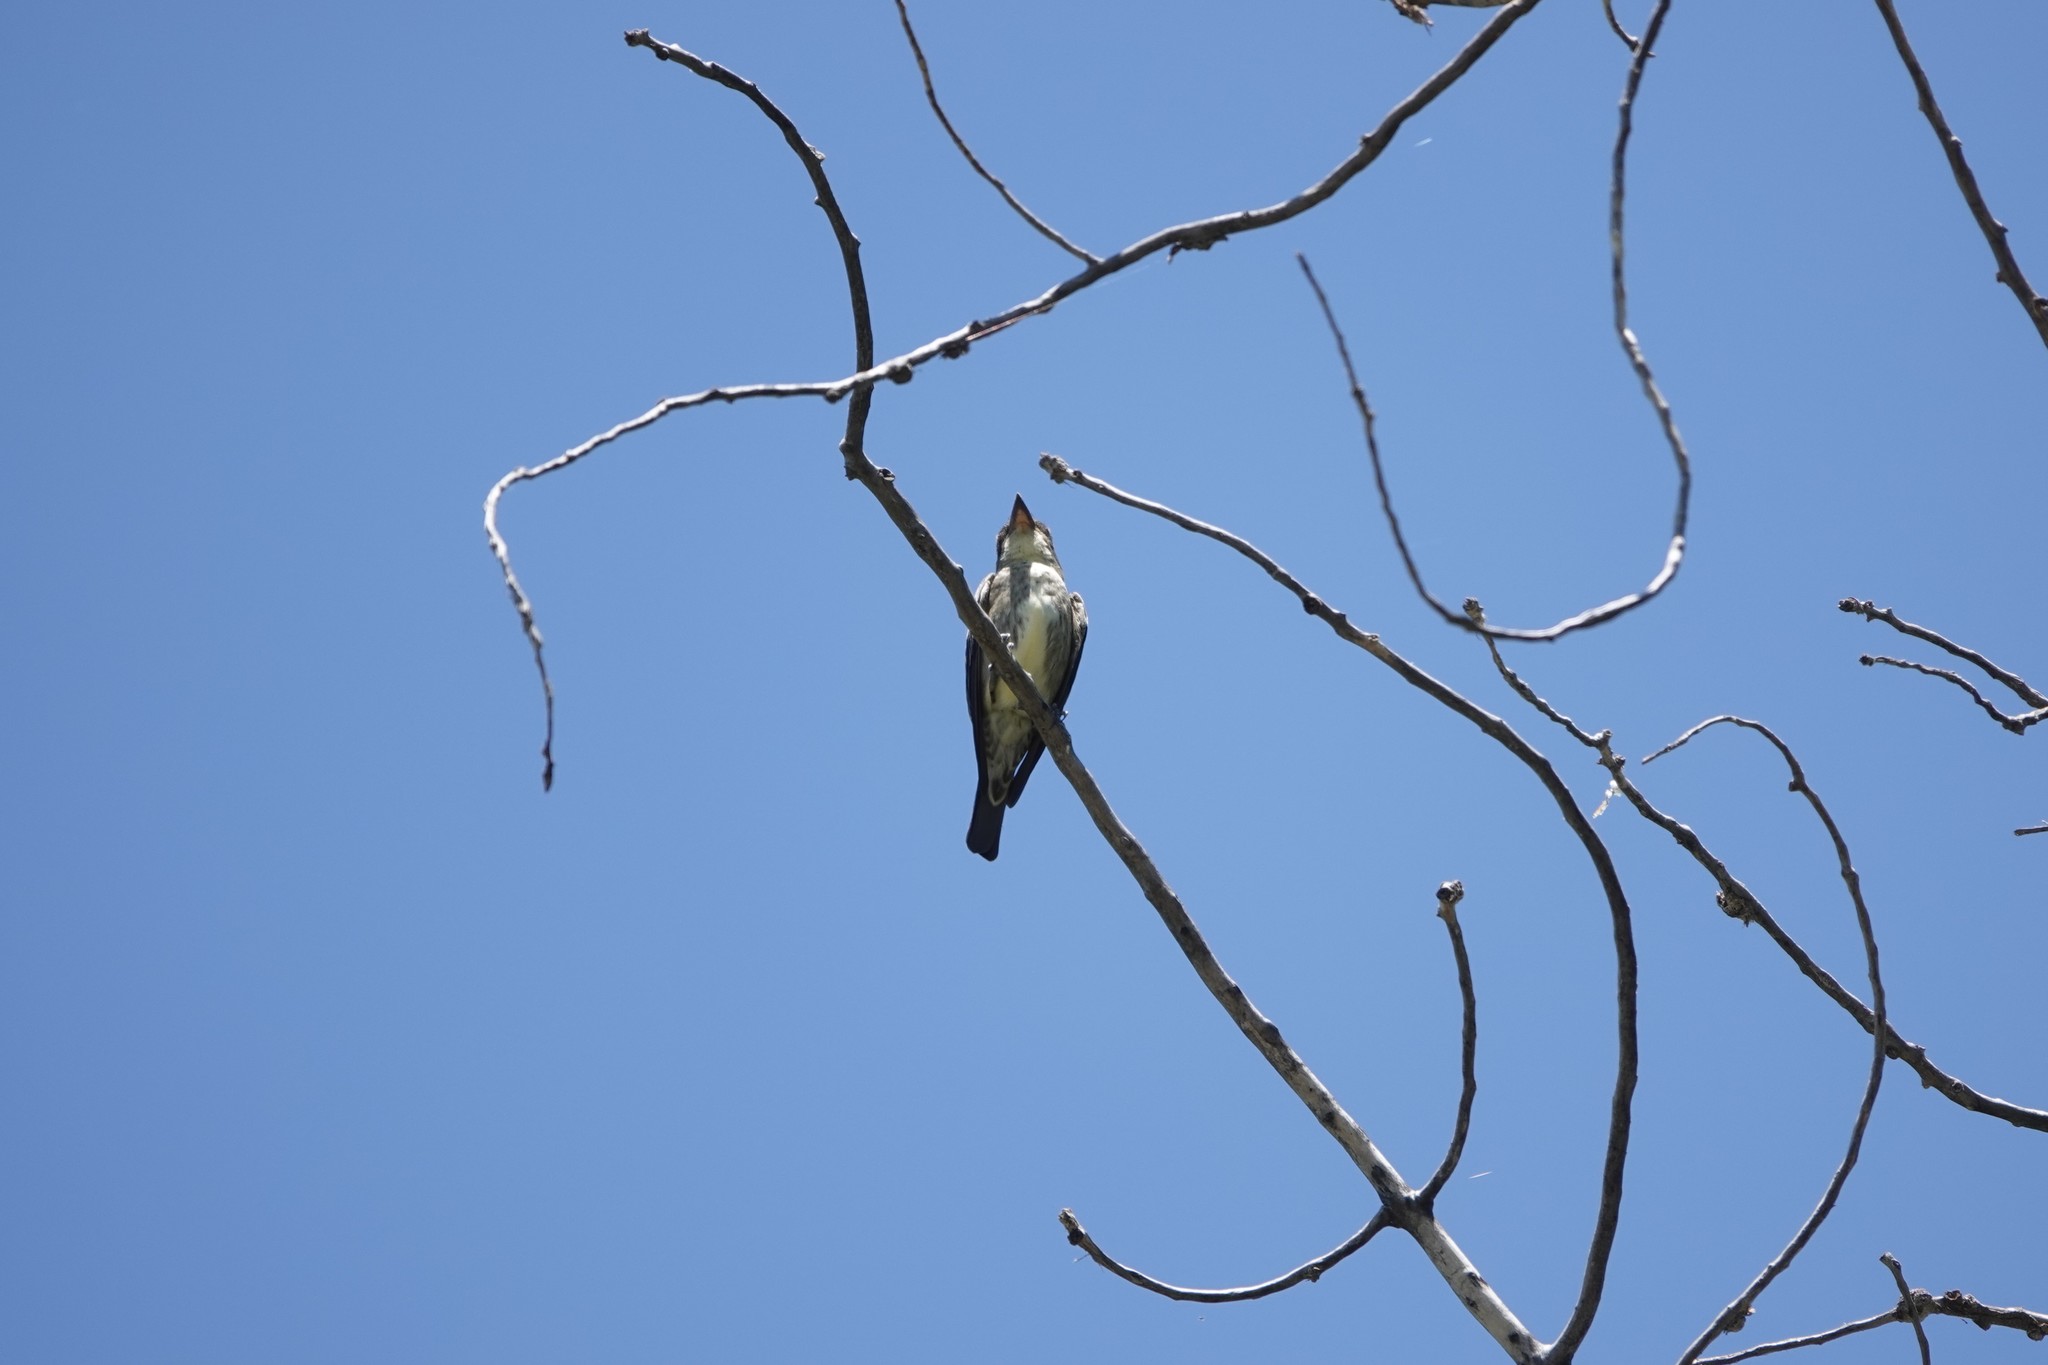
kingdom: Animalia
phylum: Chordata
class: Aves
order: Passeriformes
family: Tyrannidae
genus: Contopus
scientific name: Contopus cooperi
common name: Olive-sided flycatcher
